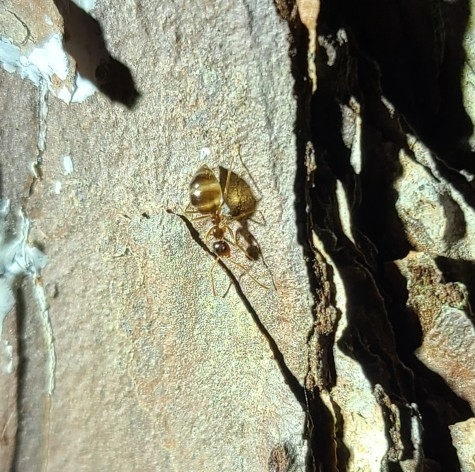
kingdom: Animalia
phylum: Arthropoda
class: Insecta
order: Hymenoptera
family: Formicidae
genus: Prenolepis
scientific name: Prenolepis imparis
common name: Small honey ant
